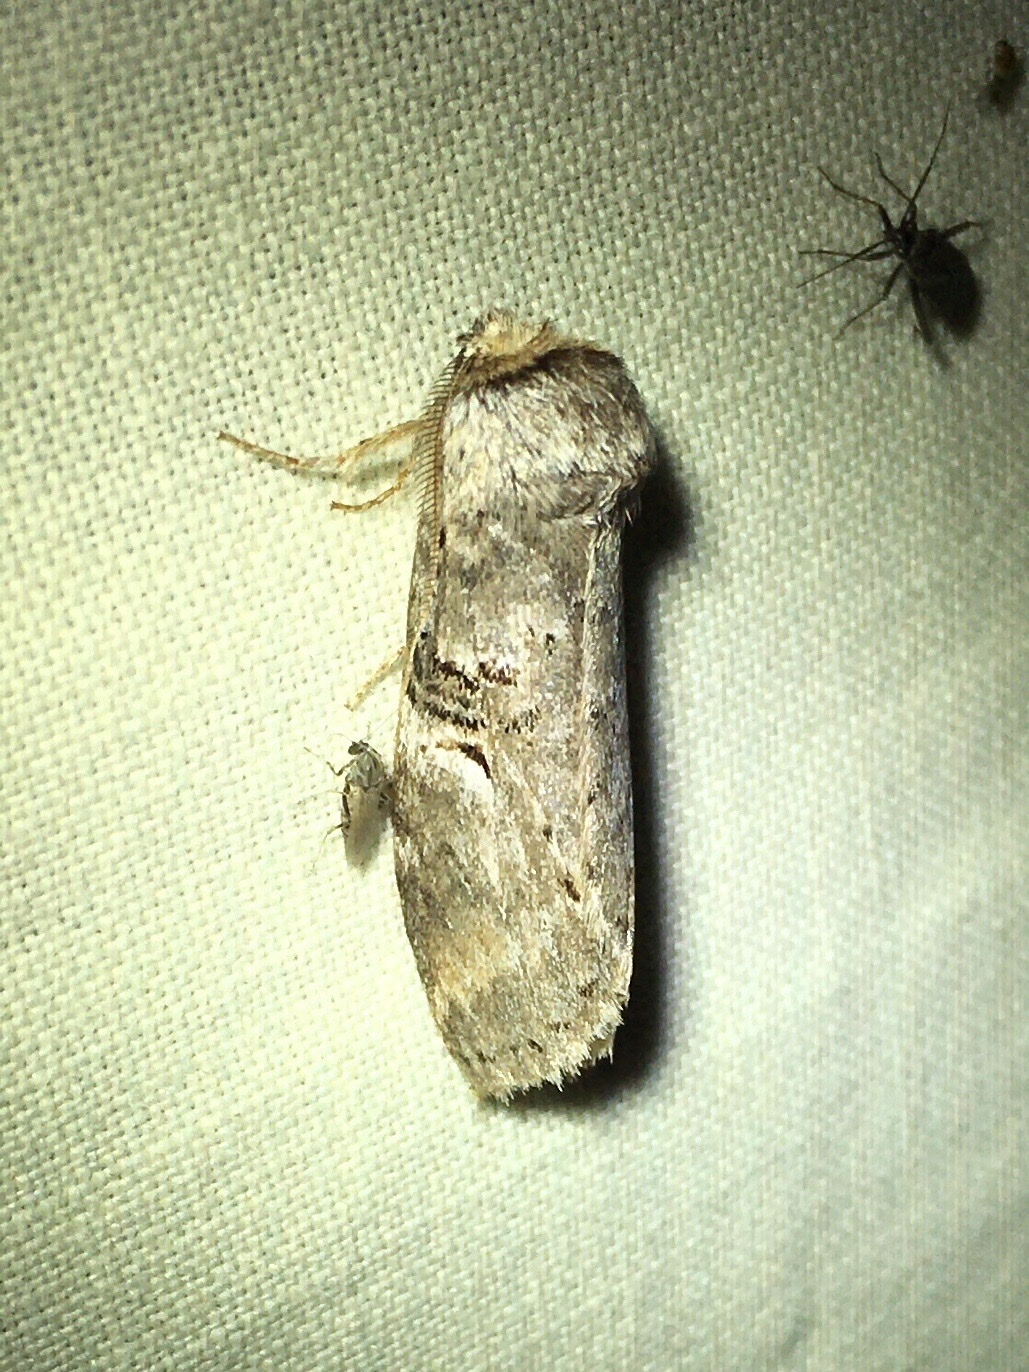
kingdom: Animalia
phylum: Arthropoda
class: Insecta
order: Lepidoptera
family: Notodontidae
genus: Ellida
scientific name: Ellida caniplaga
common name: Linden prominent
